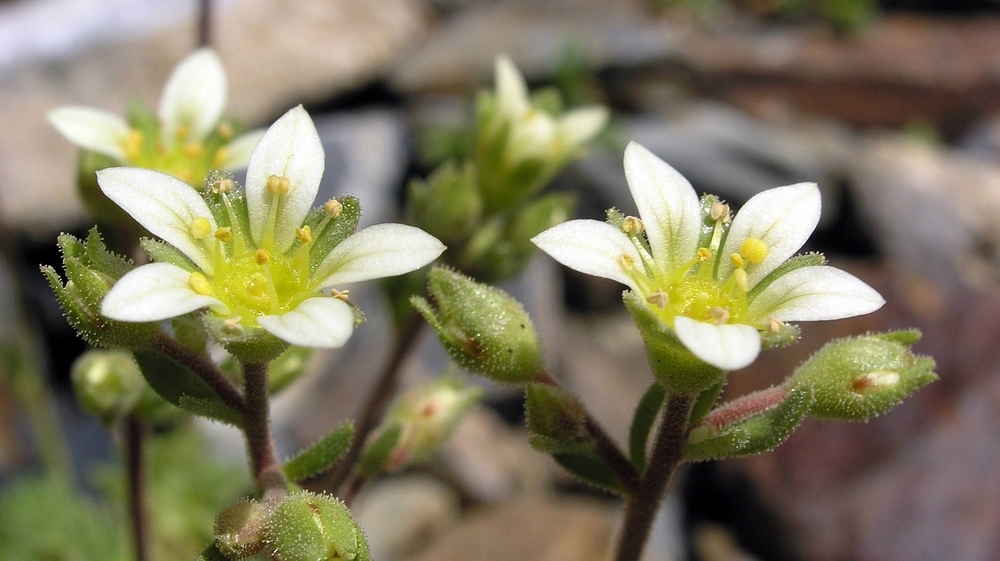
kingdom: Plantae
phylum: Tracheophyta
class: Magnoliopsida
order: Saxifragales
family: Saxifragaceae
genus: Saxifraga
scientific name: Saxifraga pubescens
